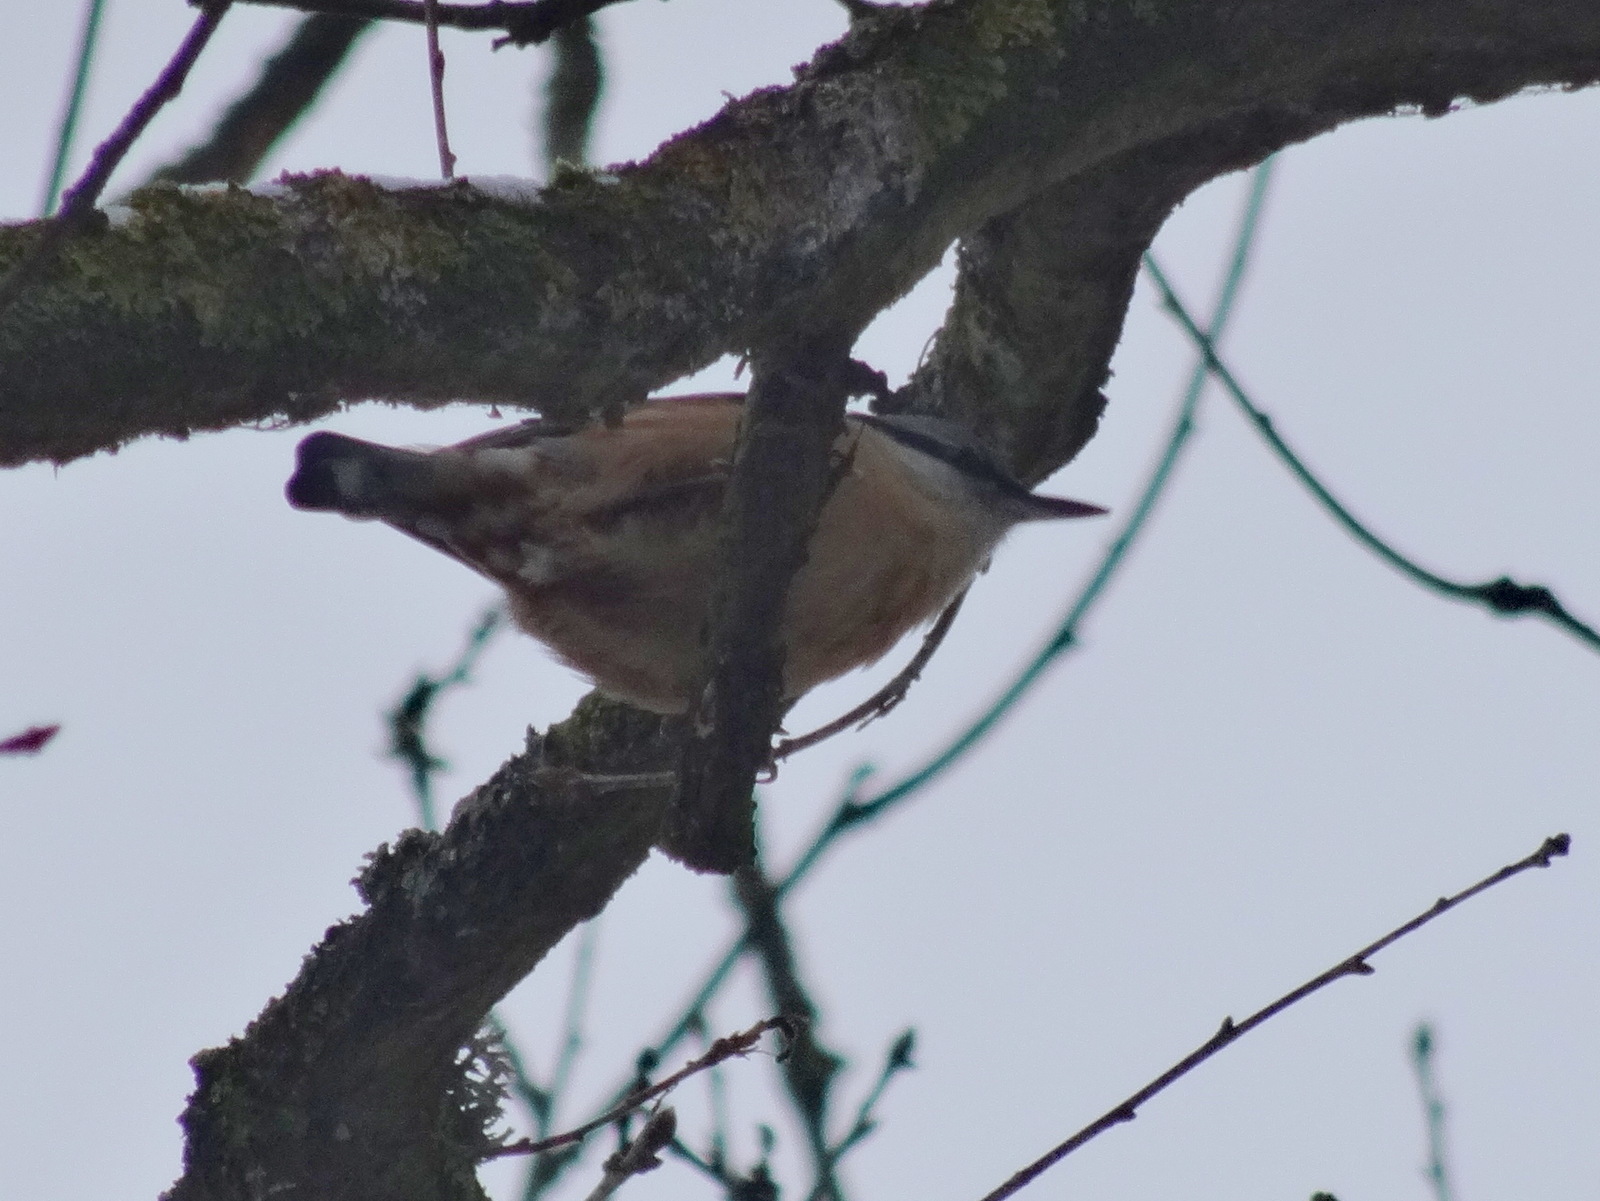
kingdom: Animalia
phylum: Chordata
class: Aves
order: Passeriformes
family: Sittidae
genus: Sitta
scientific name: Sitta europaea
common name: Eurasian nuthatch
